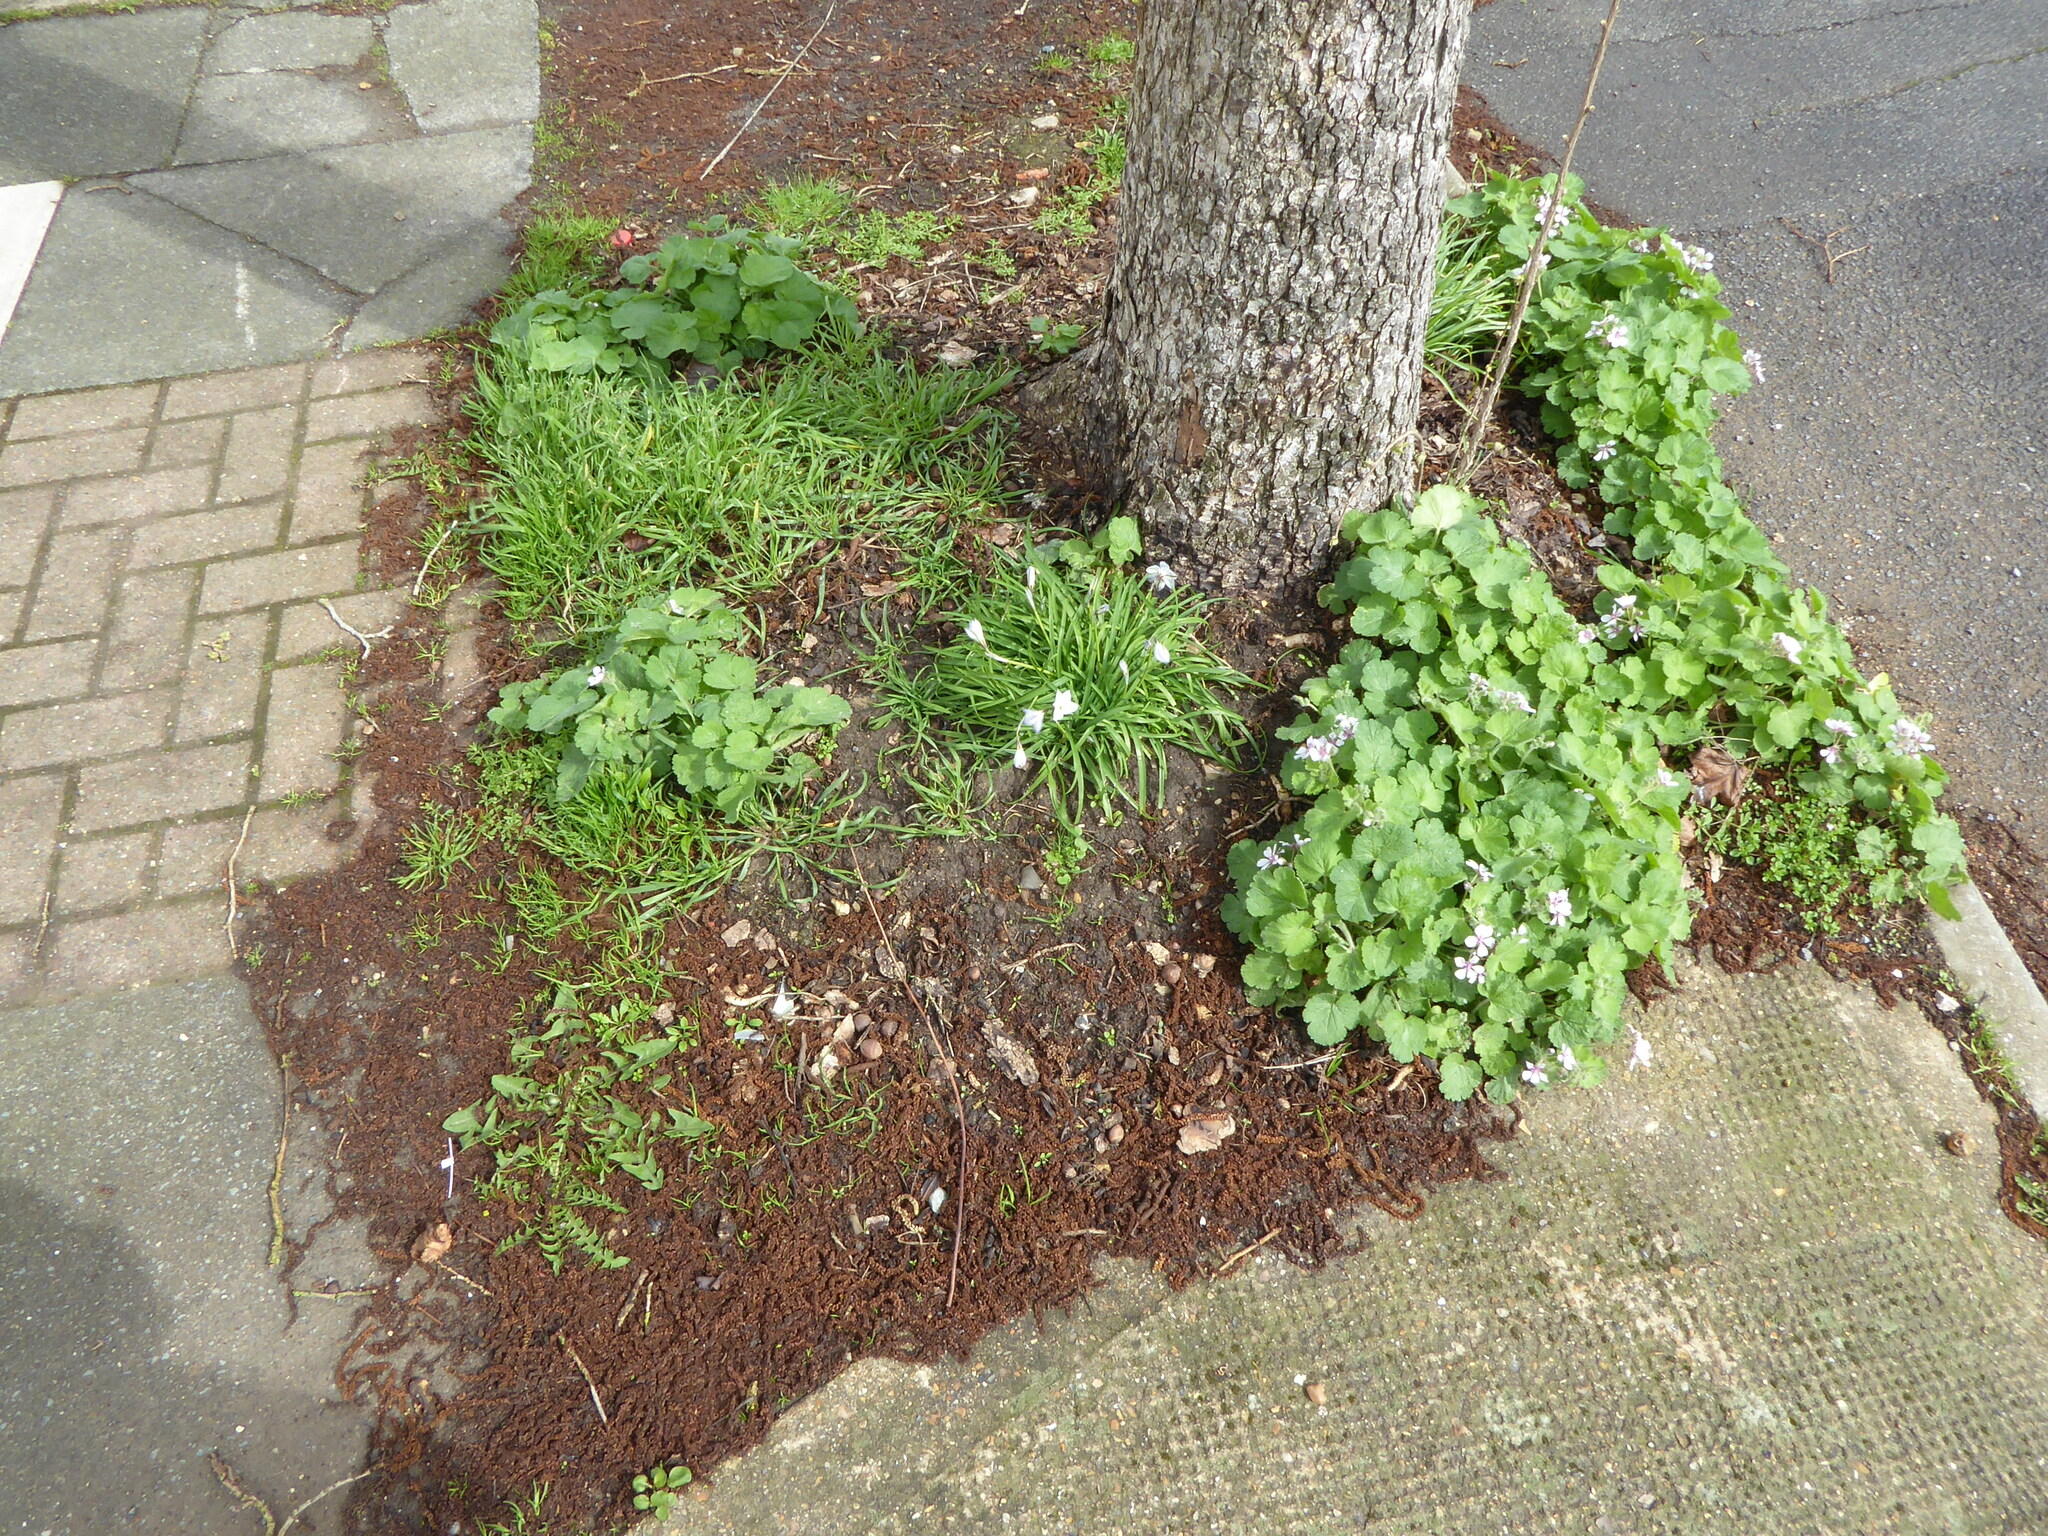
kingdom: Plantae
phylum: Tracheophyta
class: Magnoliopsida
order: Geraniales
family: Geraniaceae
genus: Erodium
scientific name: Erodium trifolium
